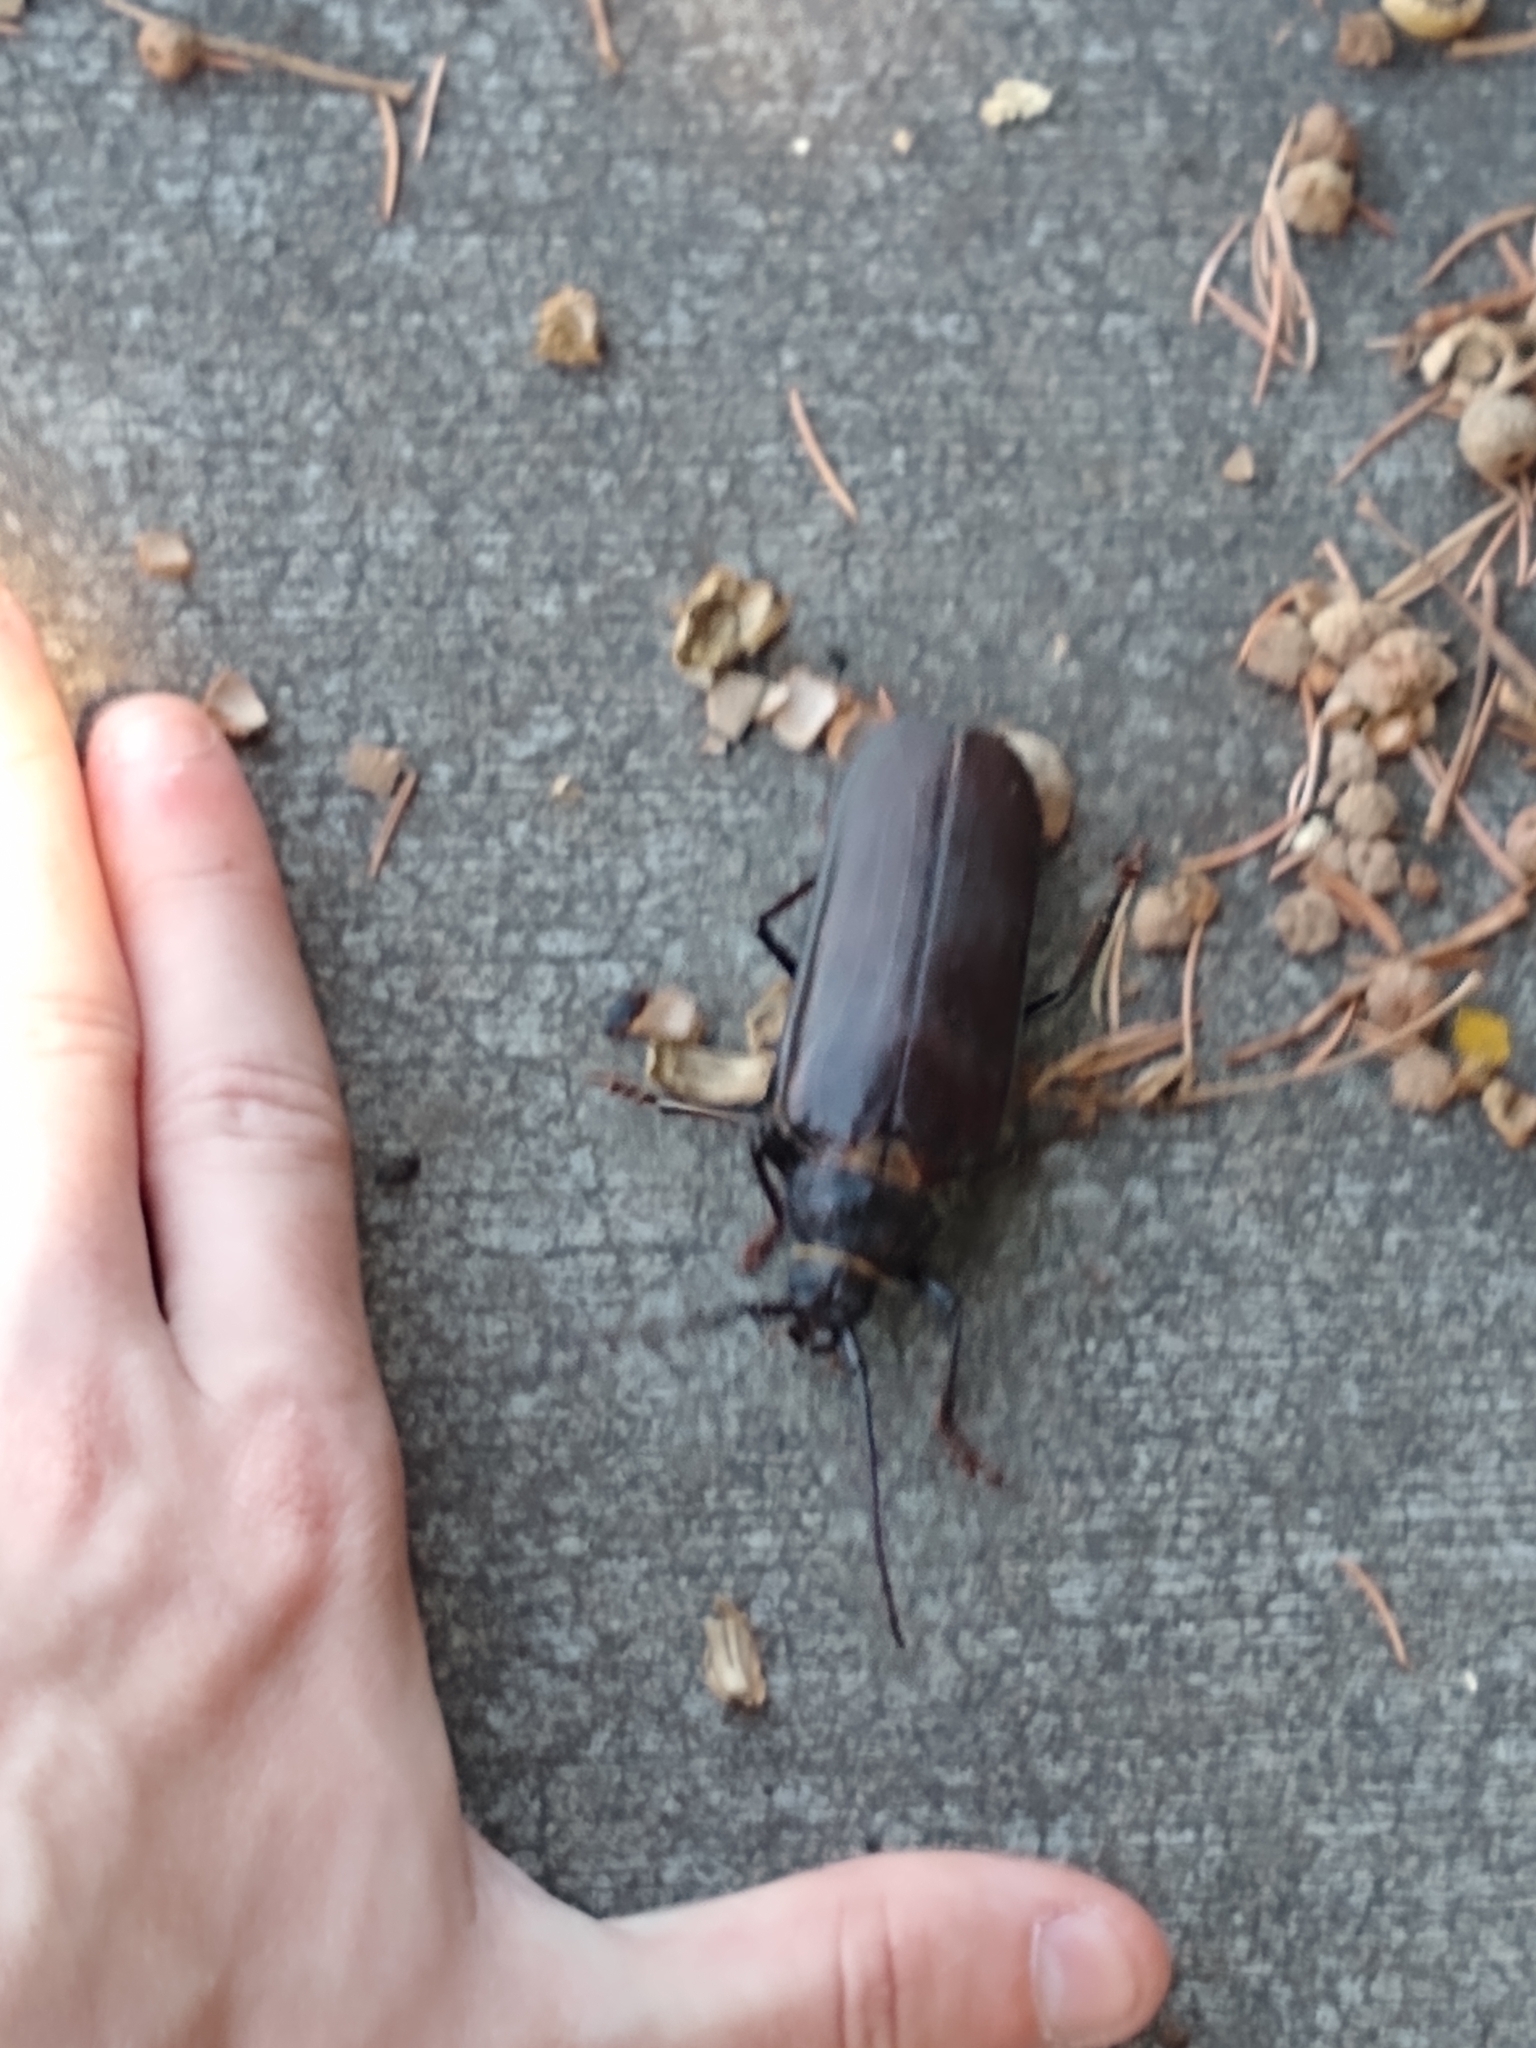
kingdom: Animalia
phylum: Arthropoda
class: Insecta
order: Coleoptera
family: Cerambycidae
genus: Trichocnemis
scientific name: Trichocnemis spiculatus
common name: Long-horned beetle
